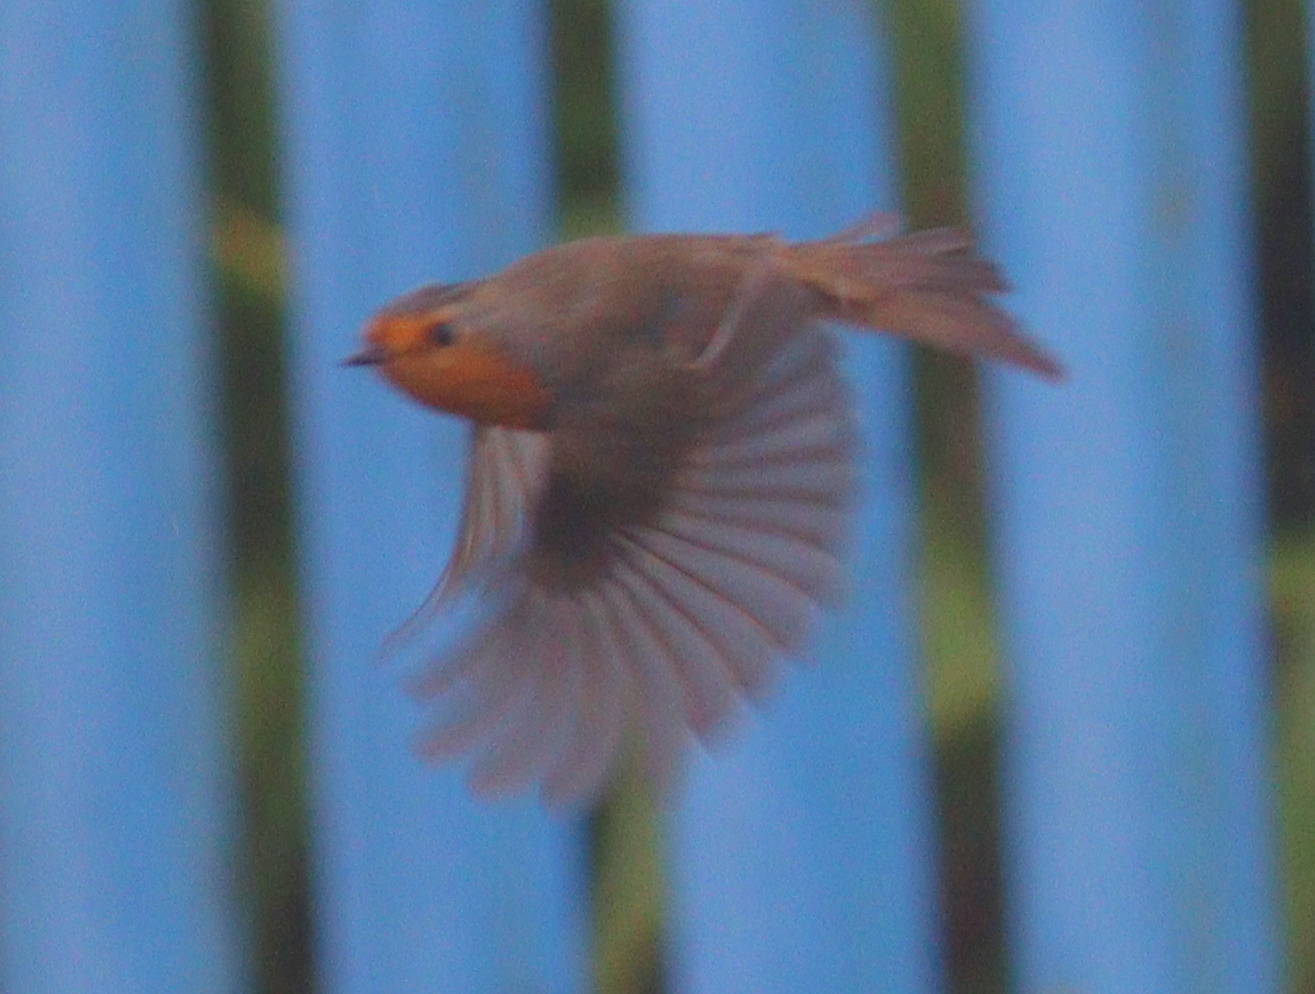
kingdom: Animalia
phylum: Chordata
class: Aves
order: Passeriformes
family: Muscicapidae
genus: Erithacus
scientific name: Erithacus rubecula
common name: European robin
